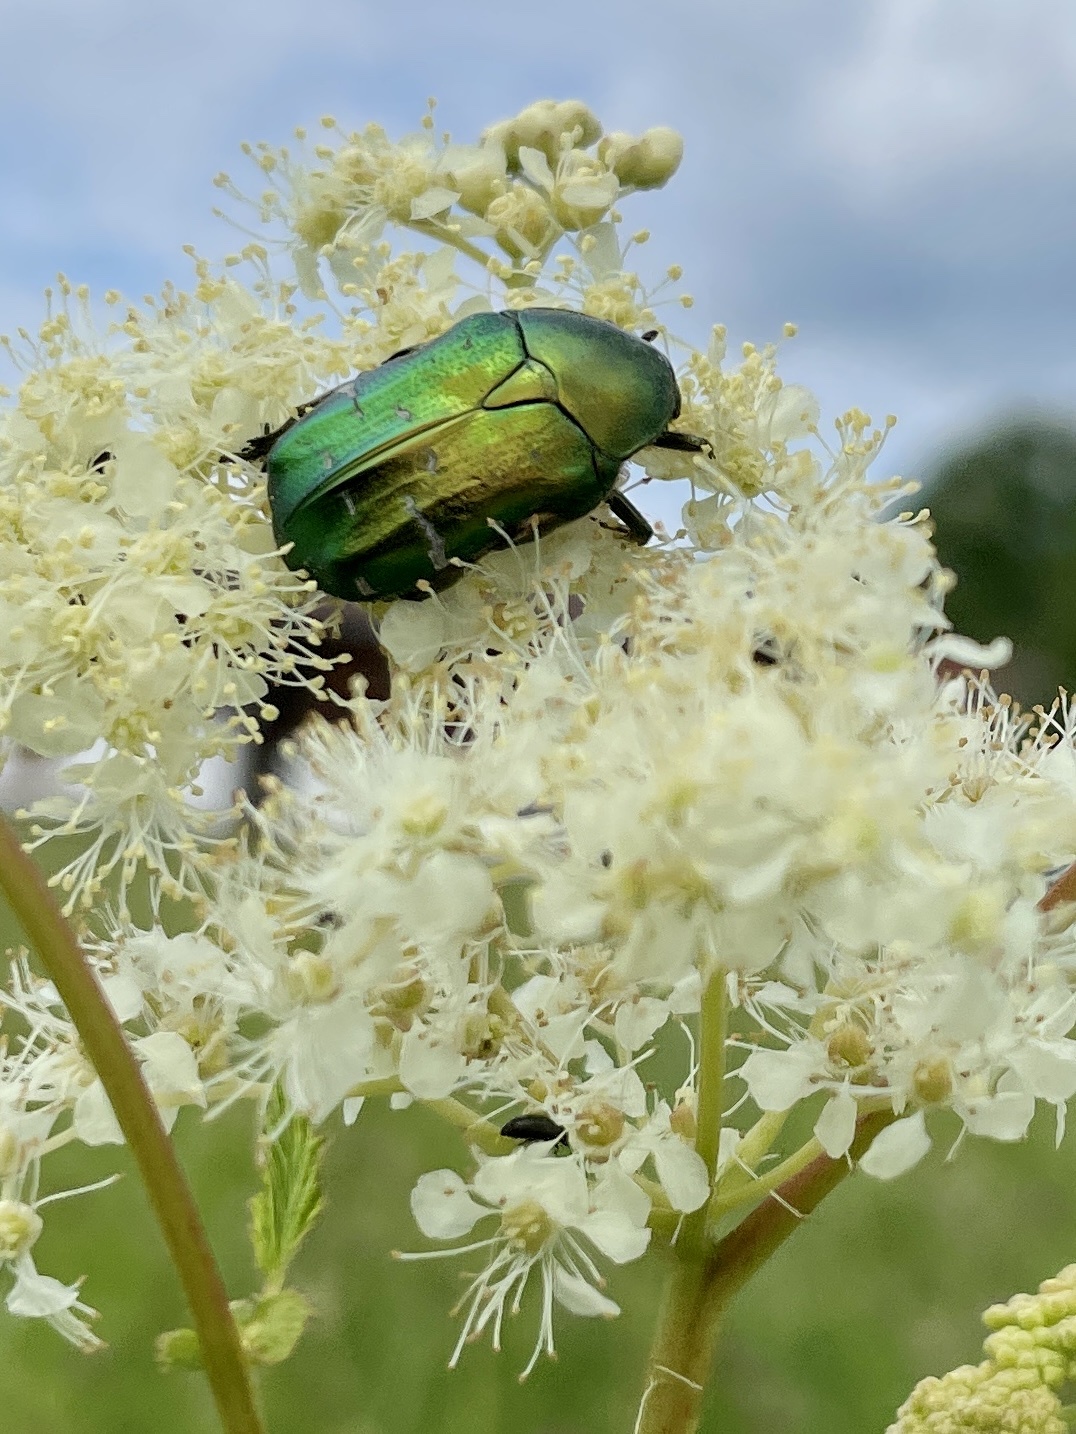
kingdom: Animalia
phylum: Arthropoda
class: Insecta
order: Coleoptera
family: Scarabaeidae
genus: Cetonia
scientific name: Cetonia aurata
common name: Rose chafer
